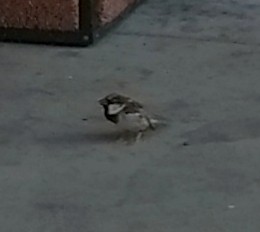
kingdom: Animalia
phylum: Chordata
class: Aves
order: Passeriformes
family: Passeridae
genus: Passer
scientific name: Passer domesticus
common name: House sparrow
